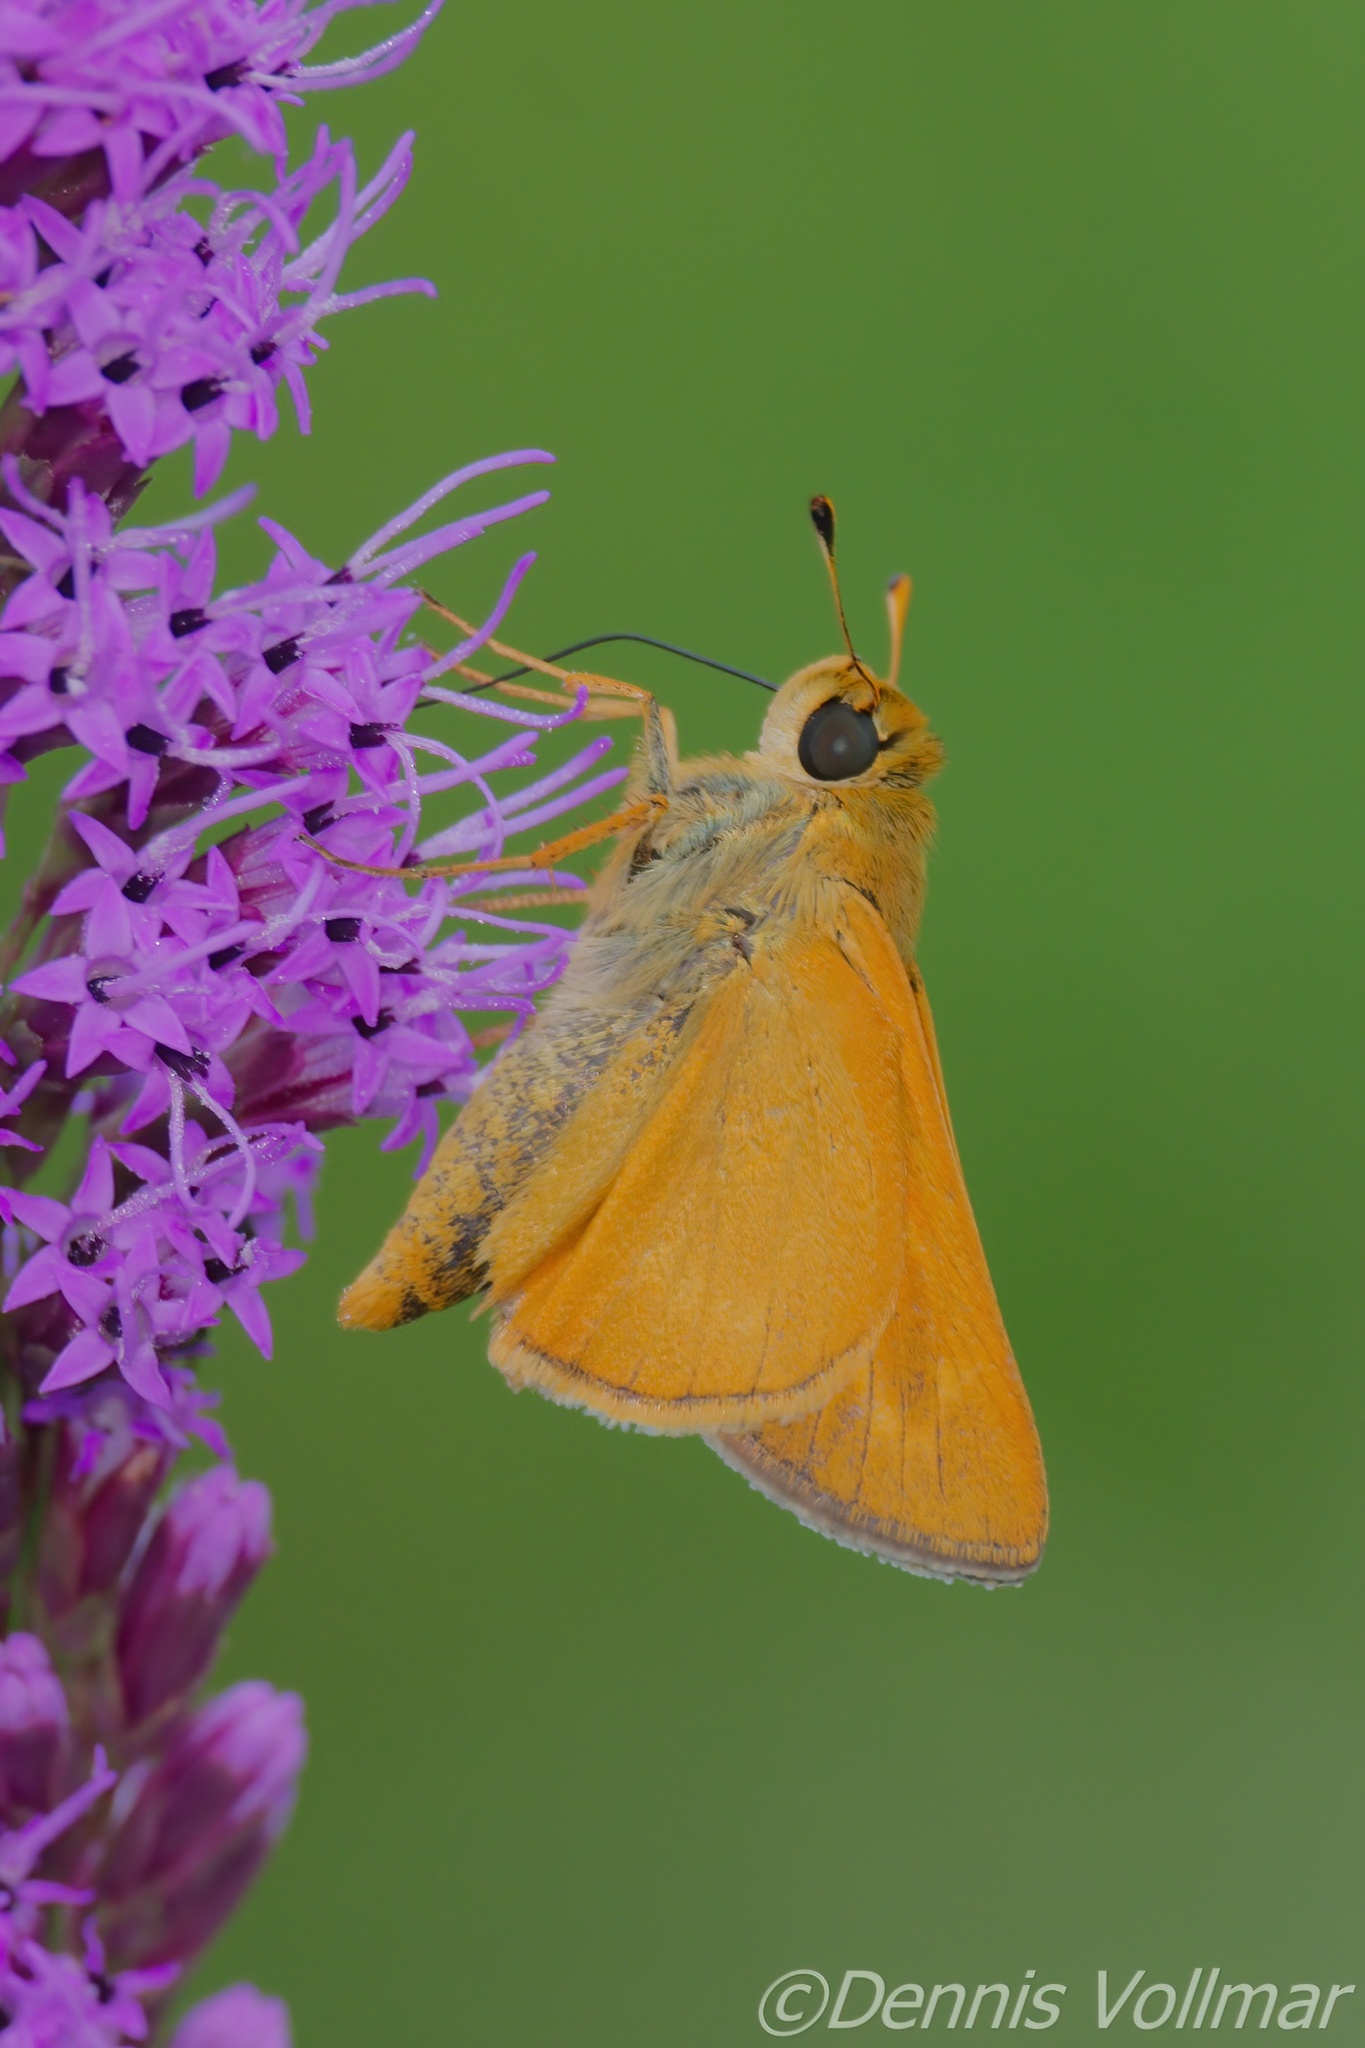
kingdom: Animalia
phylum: Arthropoda
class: Insecta
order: Lepidoptera
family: Hesperiidae
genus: Hesperia
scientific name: Hesperia meskei
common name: Meske's skipper
